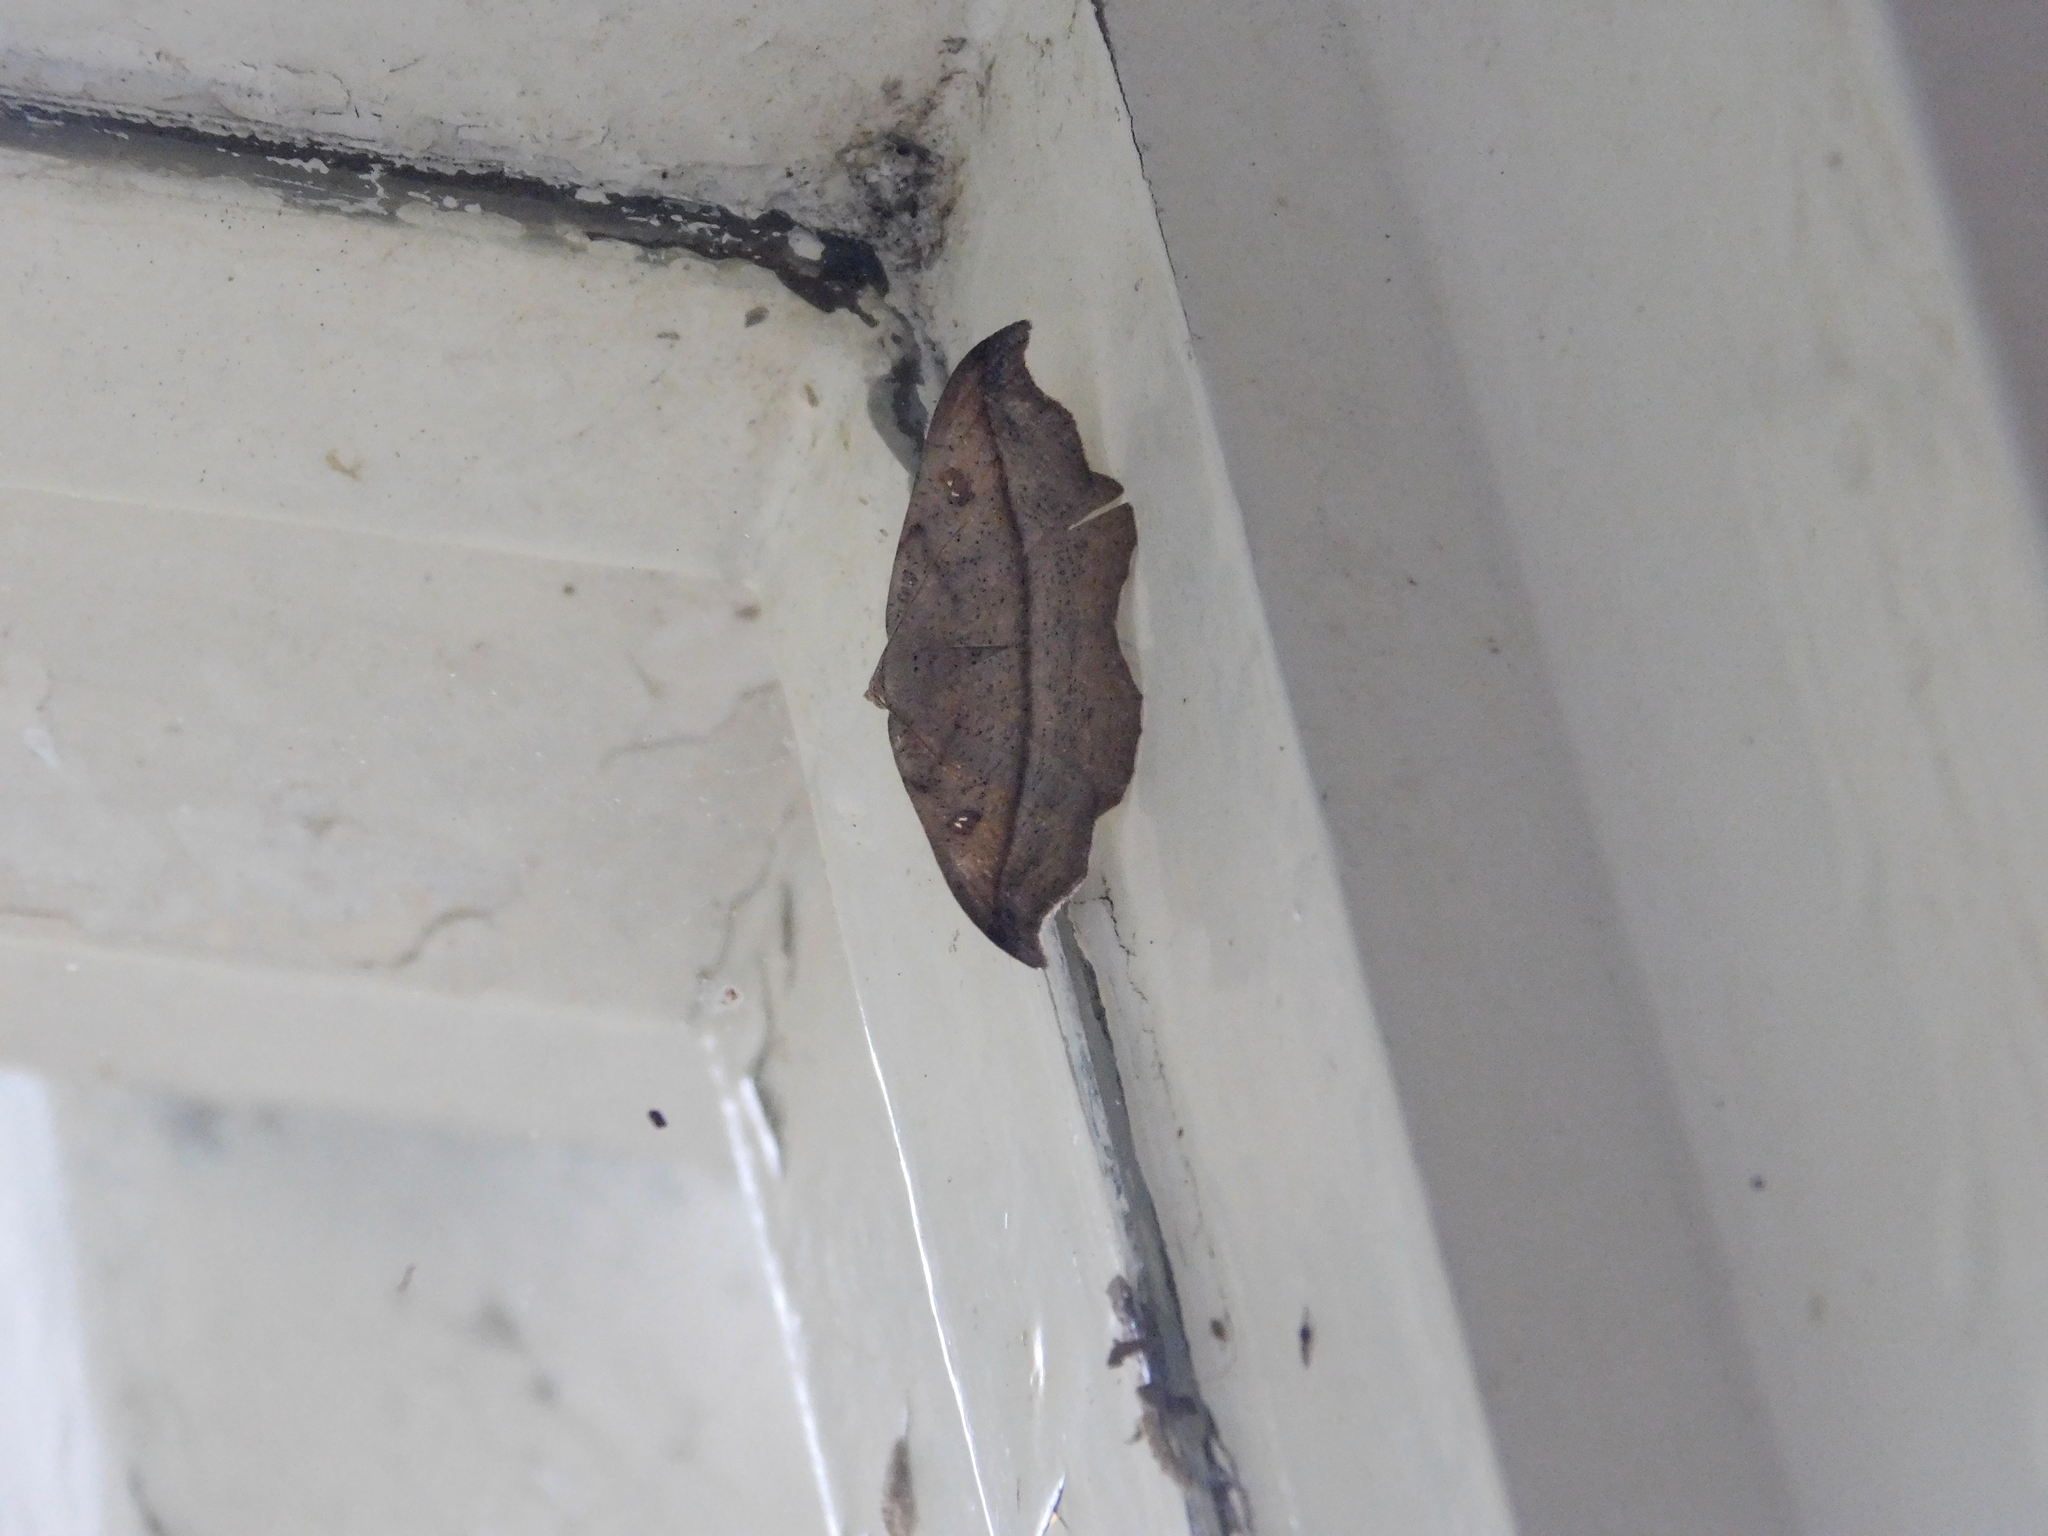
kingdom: Animalia
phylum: Arthropoda
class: Insecta
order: Lepidoptera
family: Geometridae
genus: Sarisa
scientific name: Sarisa muriferata
